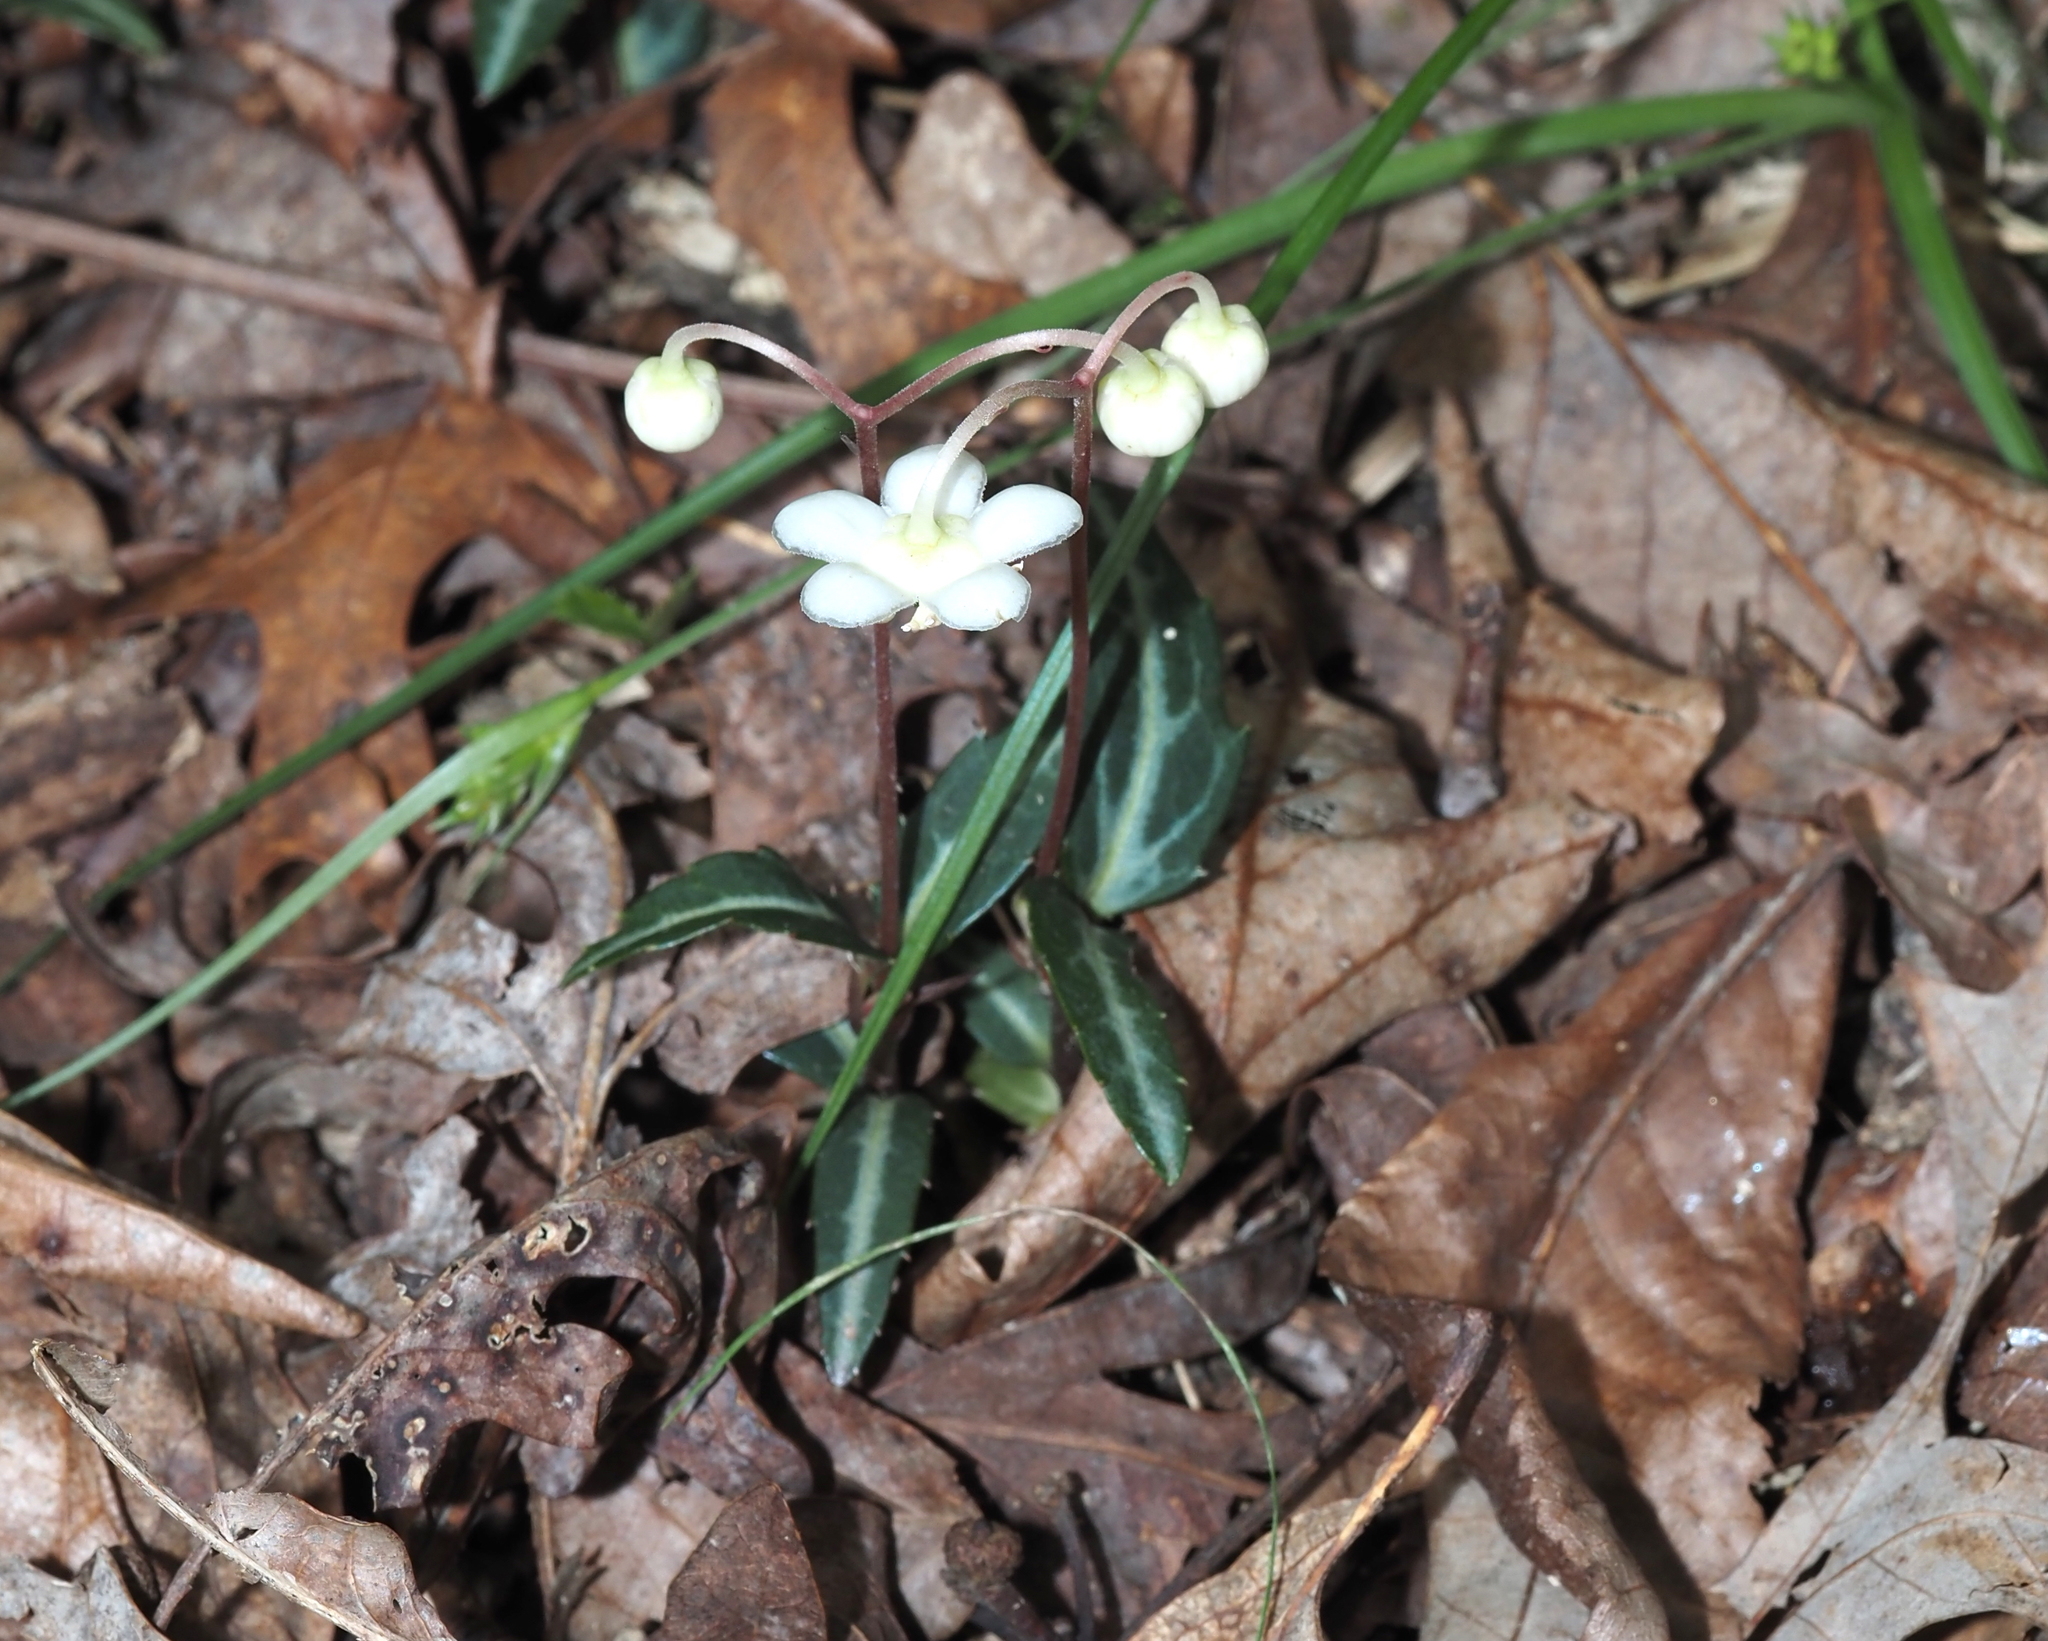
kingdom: Plantae
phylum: Tracheophyta
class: Magnoliopsida
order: Ericales
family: Ericaceae
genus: Chimaphila
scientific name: Chimaphila maculata
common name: Spotted pipsissewa
